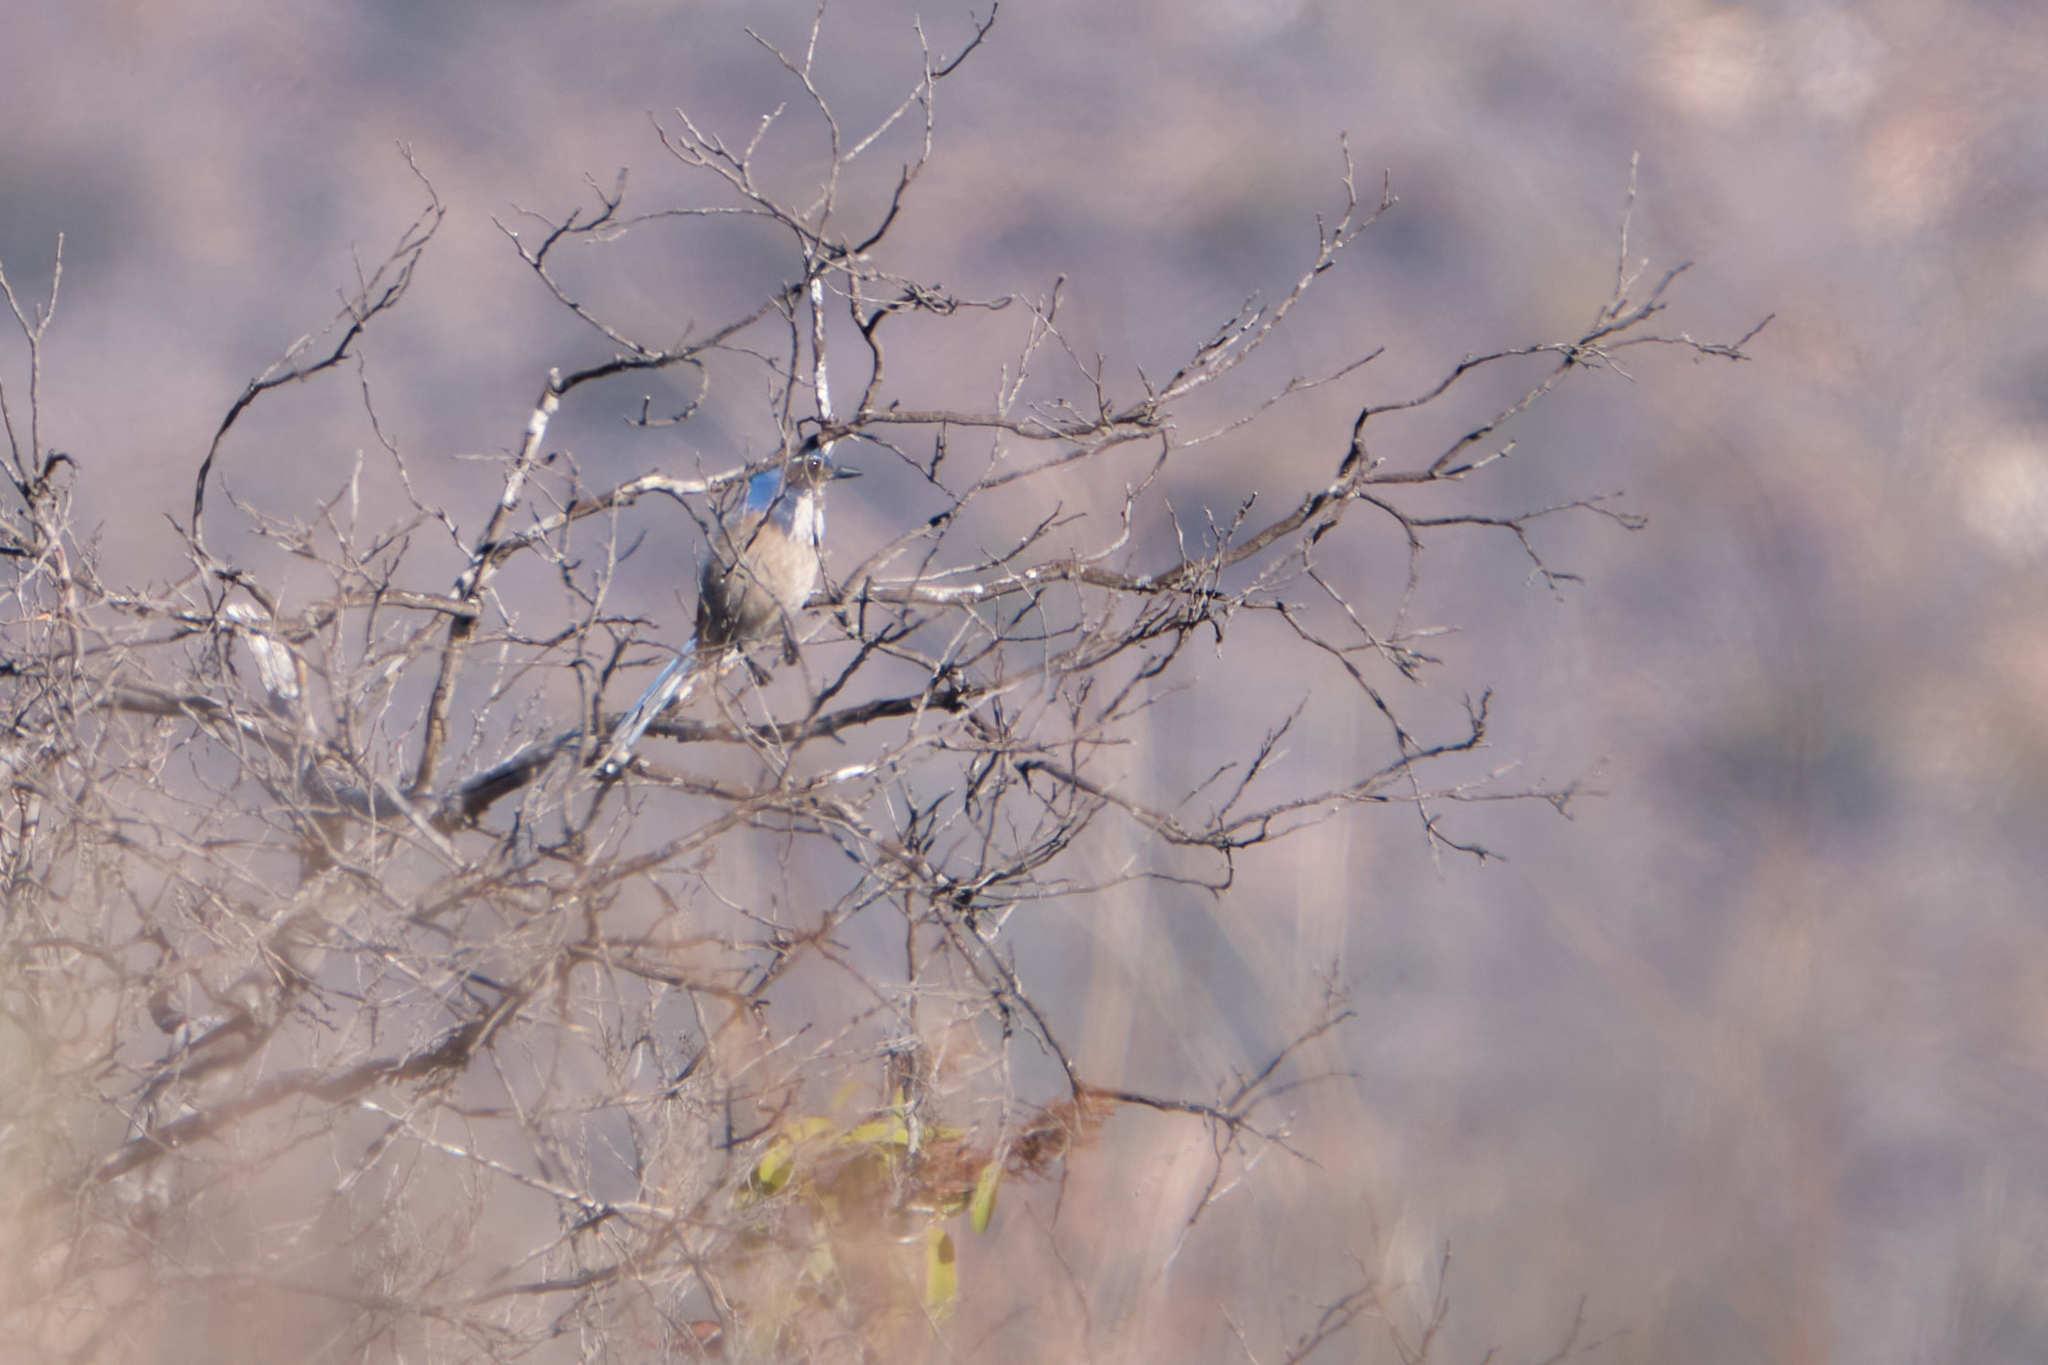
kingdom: Animalia
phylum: Chordata
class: Aves
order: Passeriformes
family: Corvidae
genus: Aphelocoma
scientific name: Aphelocoma californica
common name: California scrub-jay
